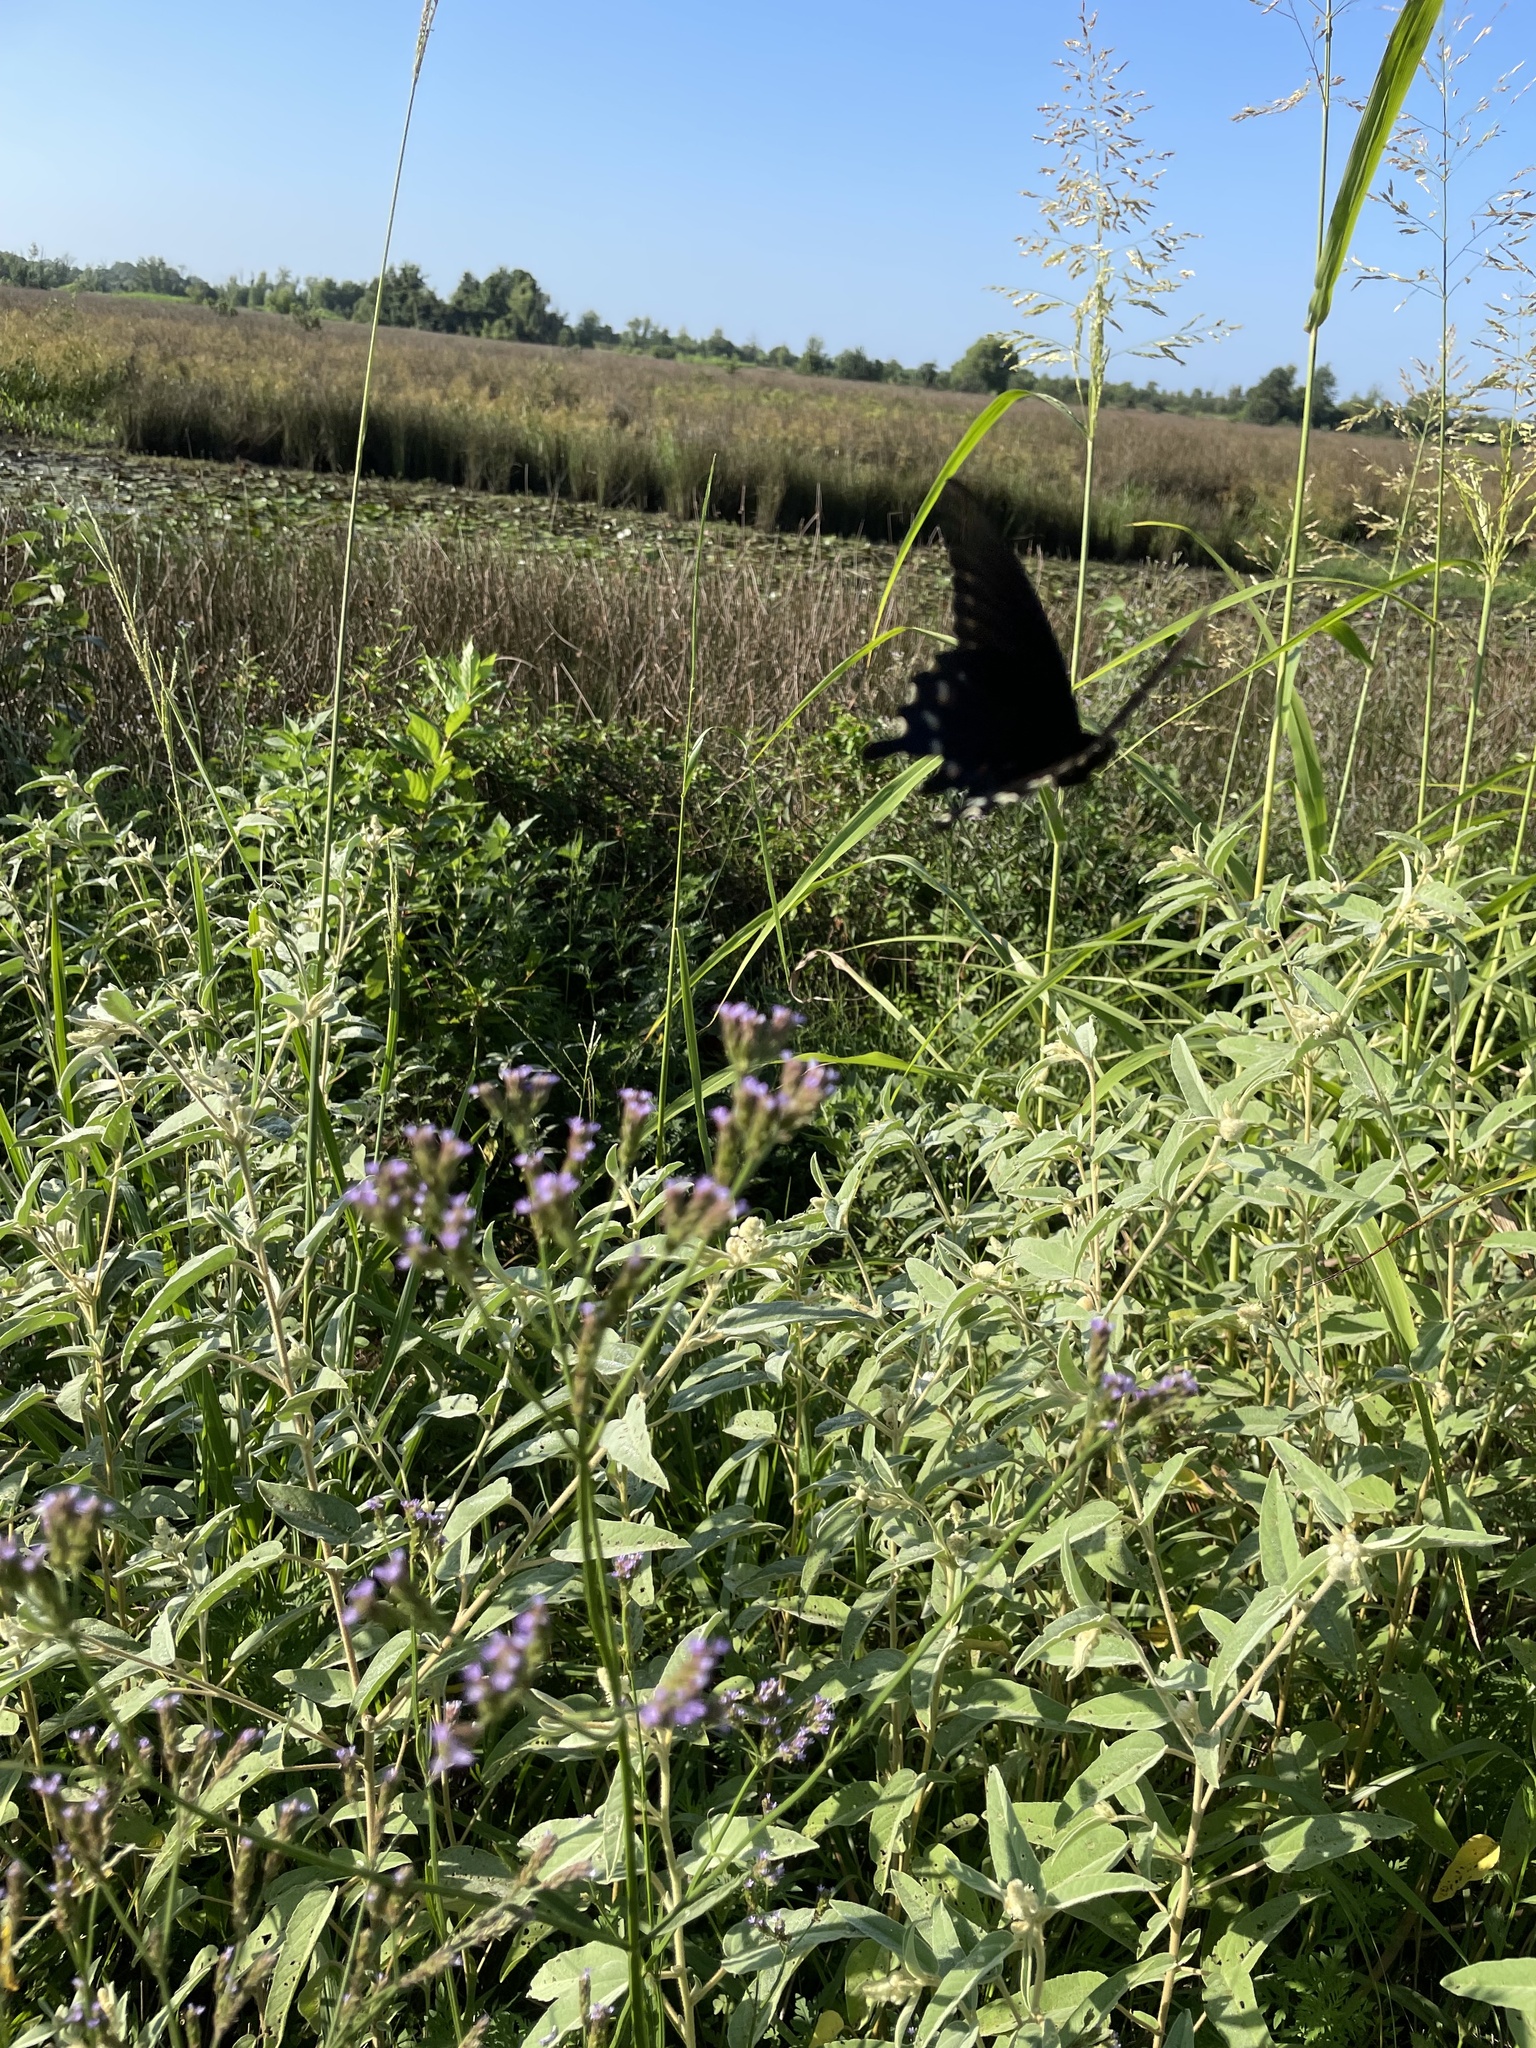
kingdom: Animalia
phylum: Arthropoda
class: Insecta
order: Lepidoptera
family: Papilionidae
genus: Battus
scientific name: Battus philenor
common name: Pipevine swallowtail
